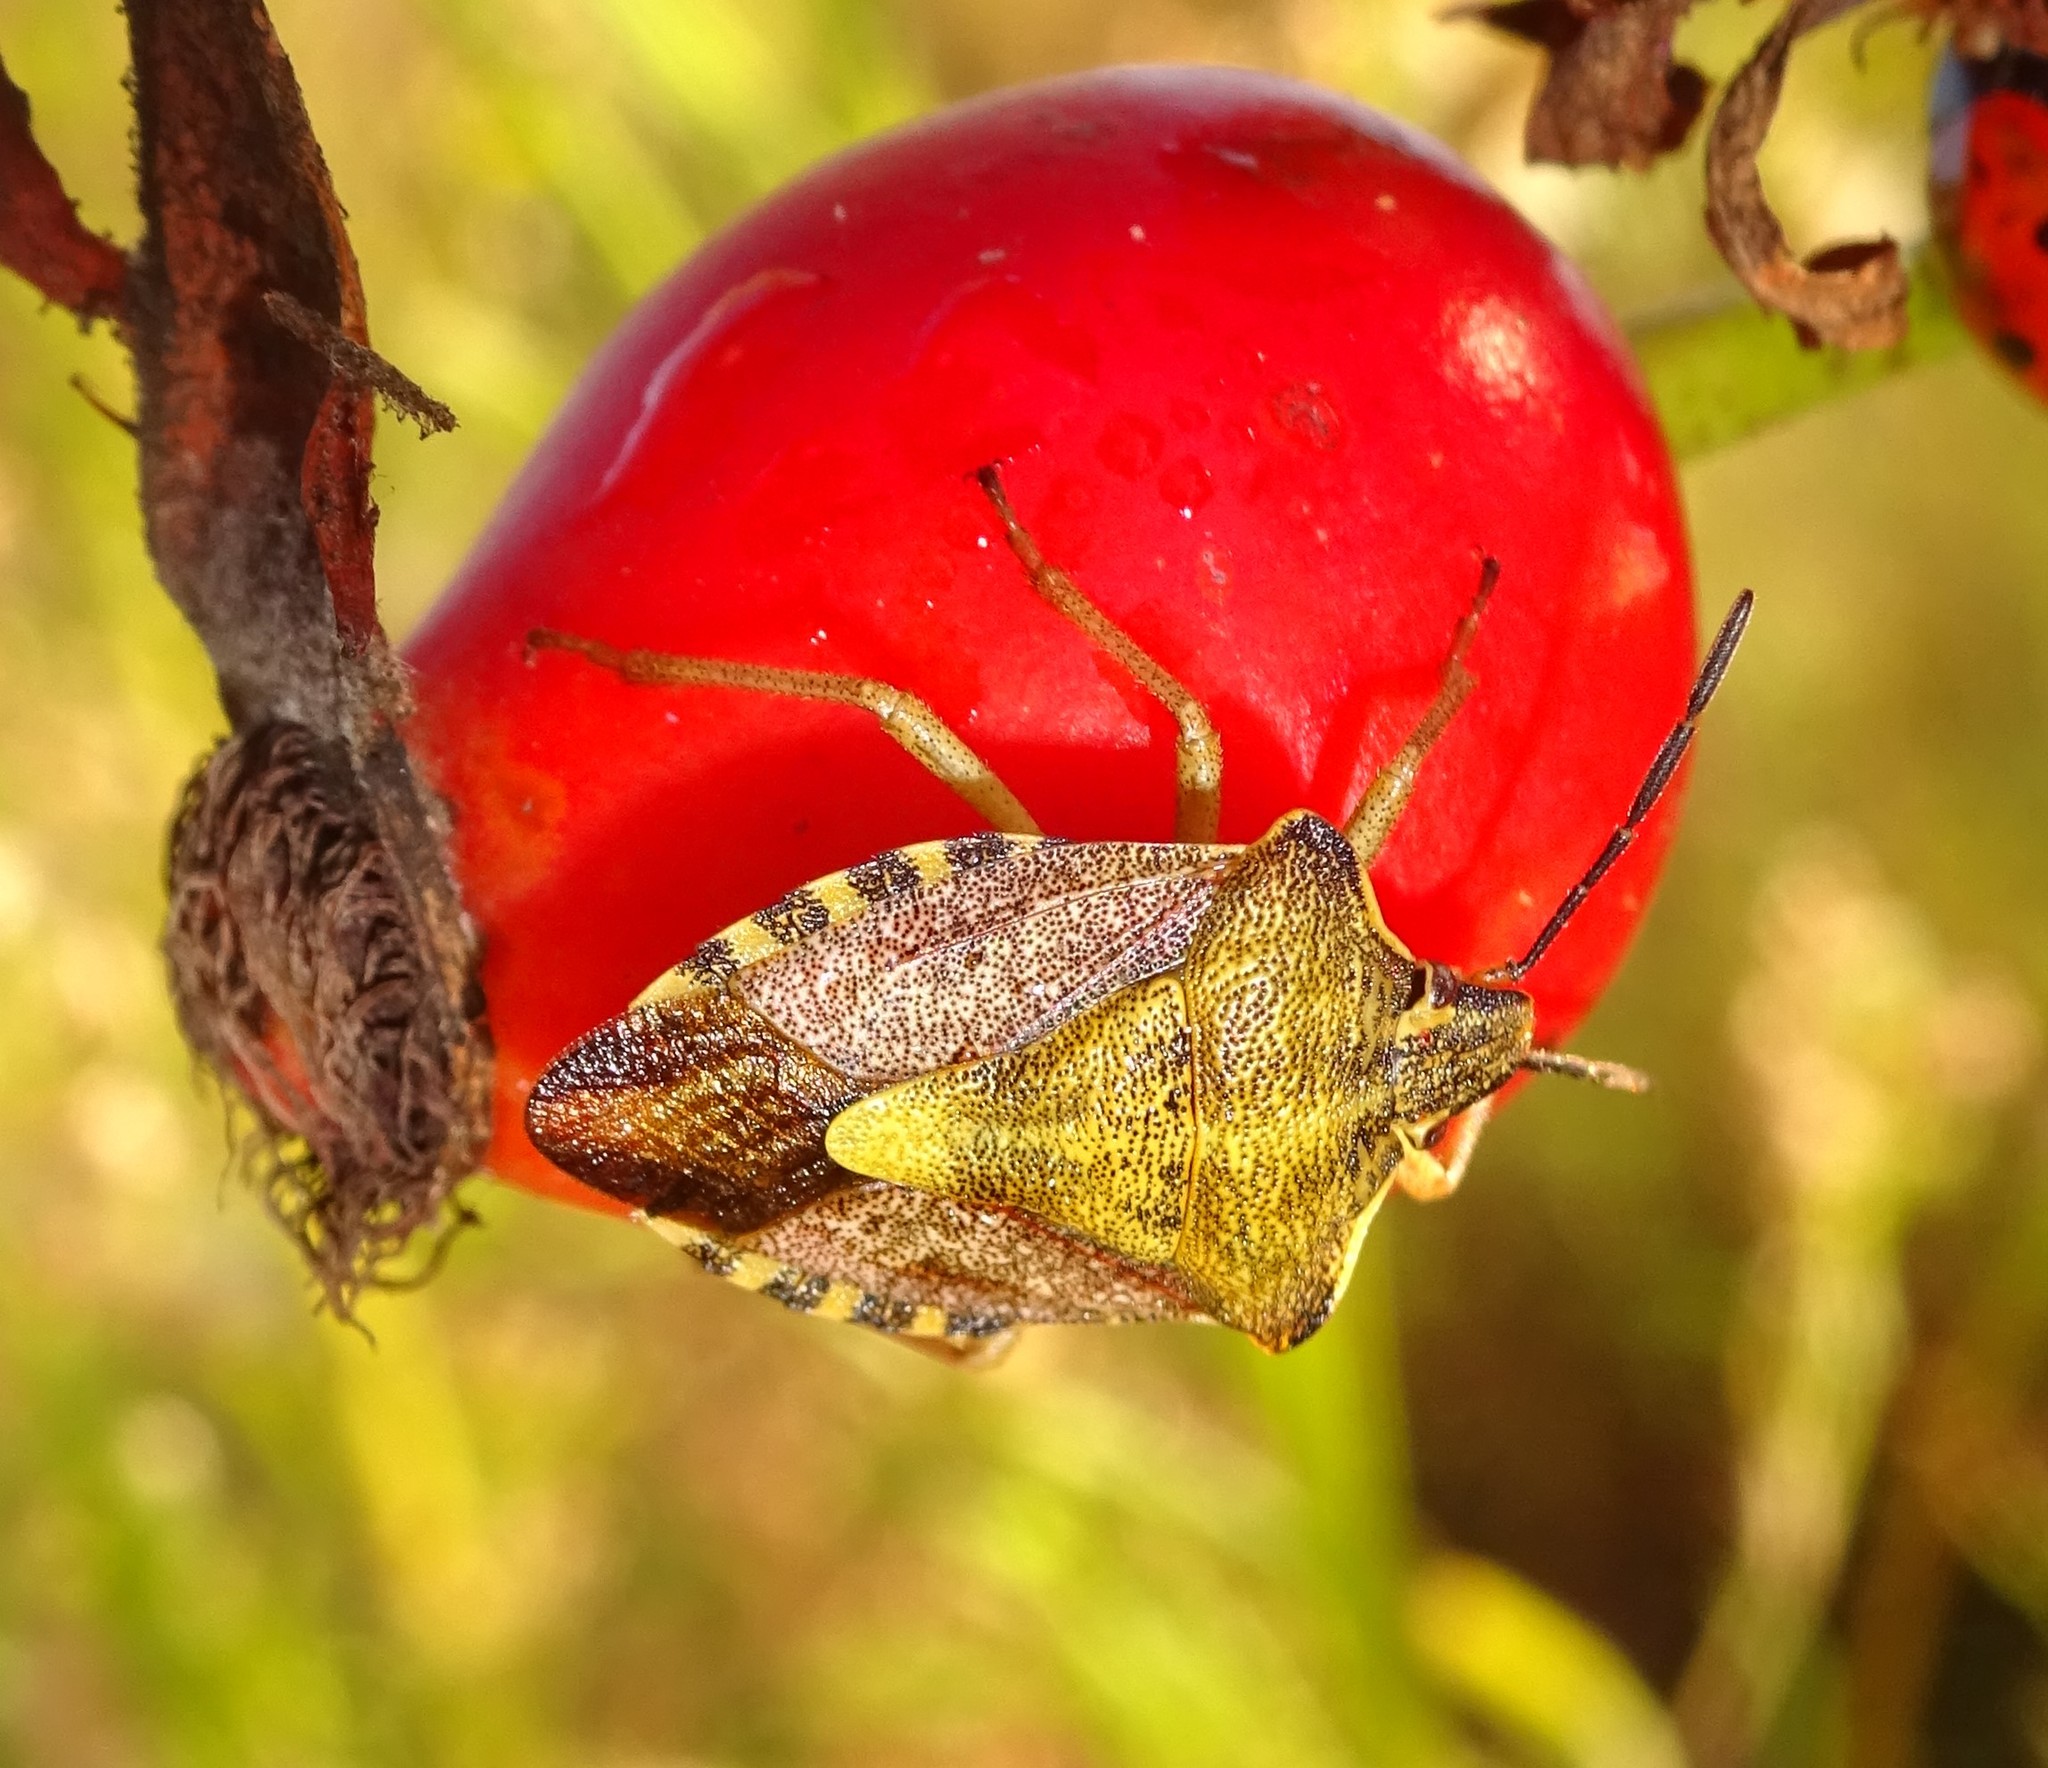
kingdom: Animalia
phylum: Arthropoda
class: Insecta
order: Hemiptera
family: Pentatomidae
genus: Carpocoris
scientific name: Carpocoris purpureipennis
